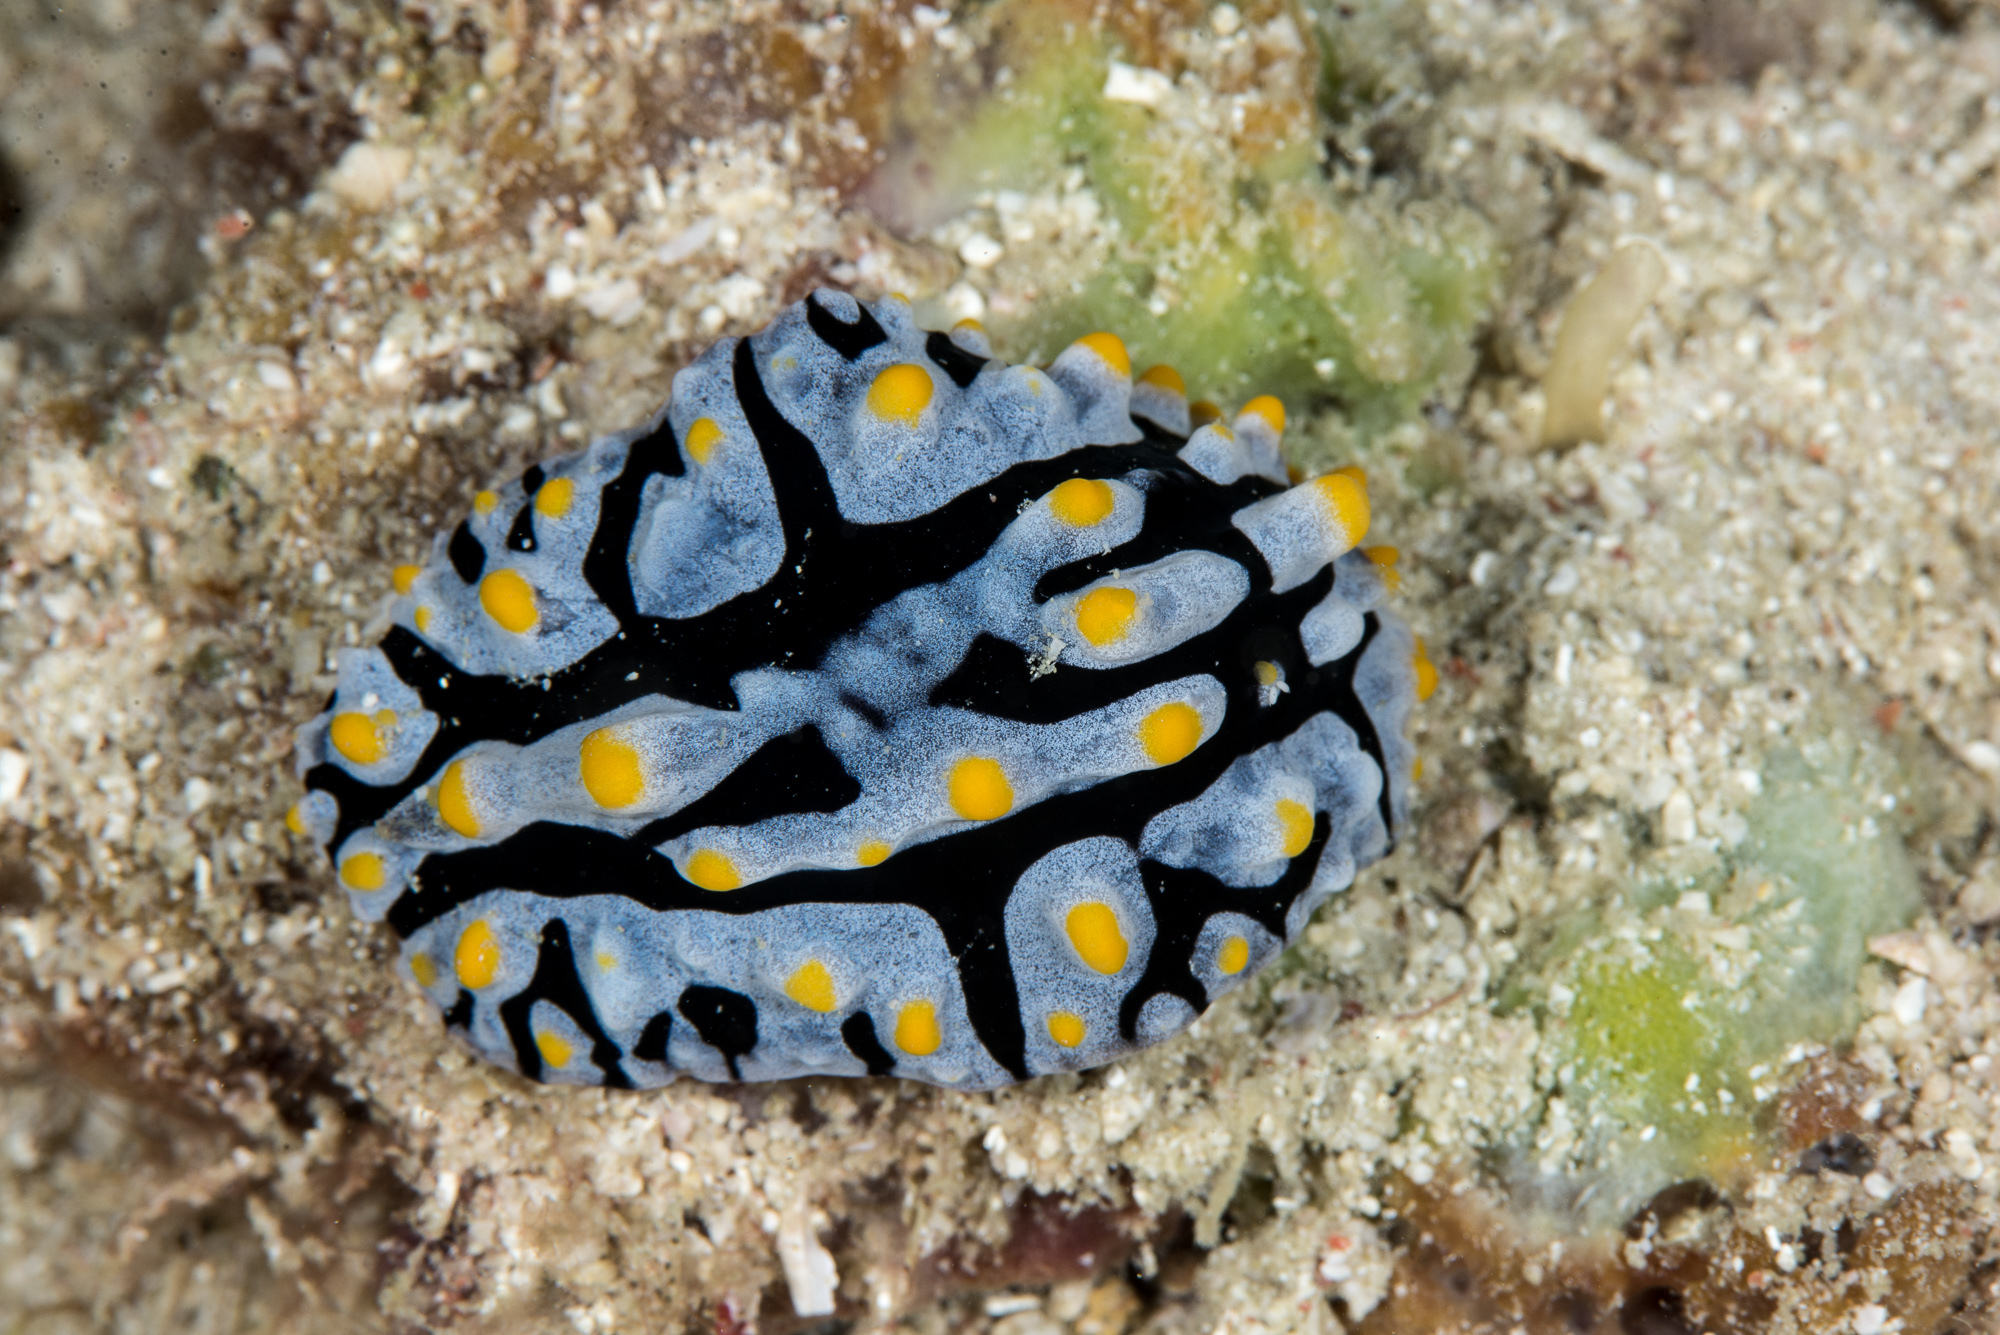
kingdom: Animalia
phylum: Mollusca
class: Gastropoda
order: Nudibranchia
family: Phyllidiidae
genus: Phyllidia
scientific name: Phyllidia varicosa
